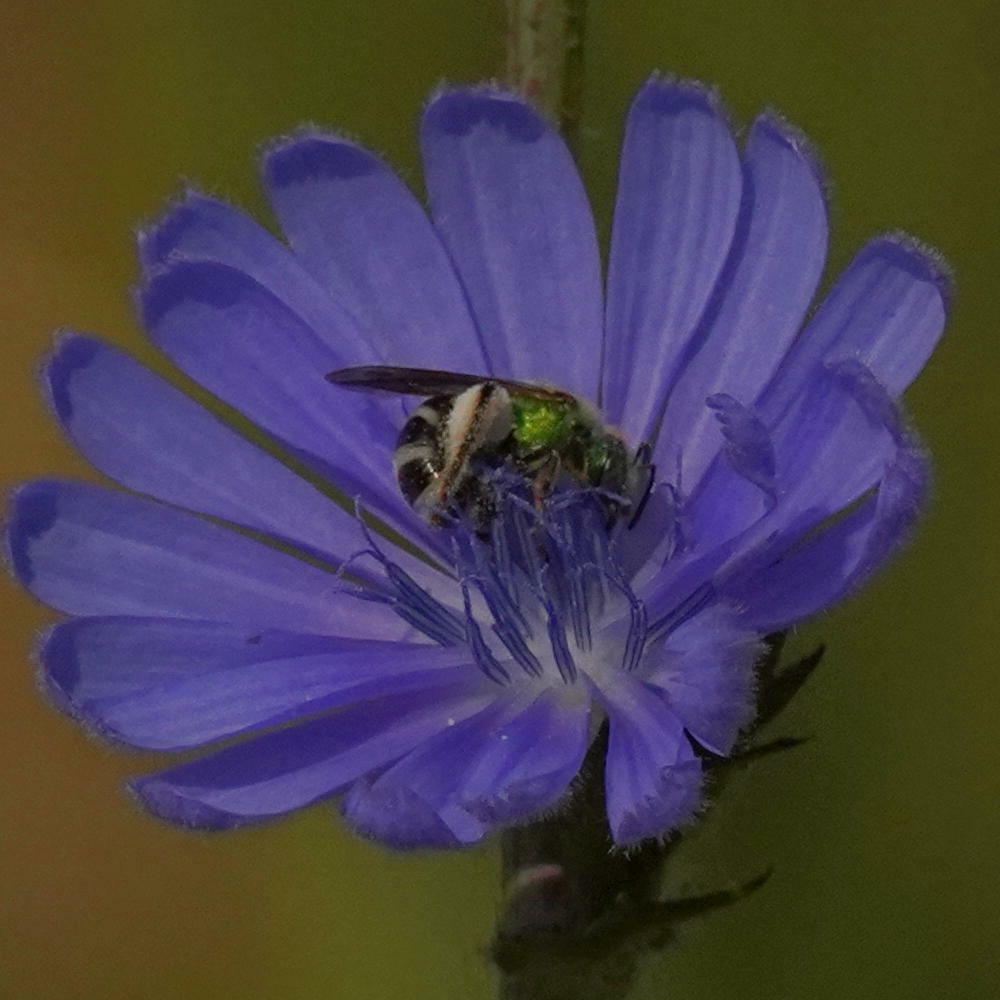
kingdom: Animalia
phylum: Arthropoda
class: Insecta
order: Hymenoptera
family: Halictidae
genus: Agapostemon
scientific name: Agapostemon virescens
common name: Bicolored striped sweat bee
